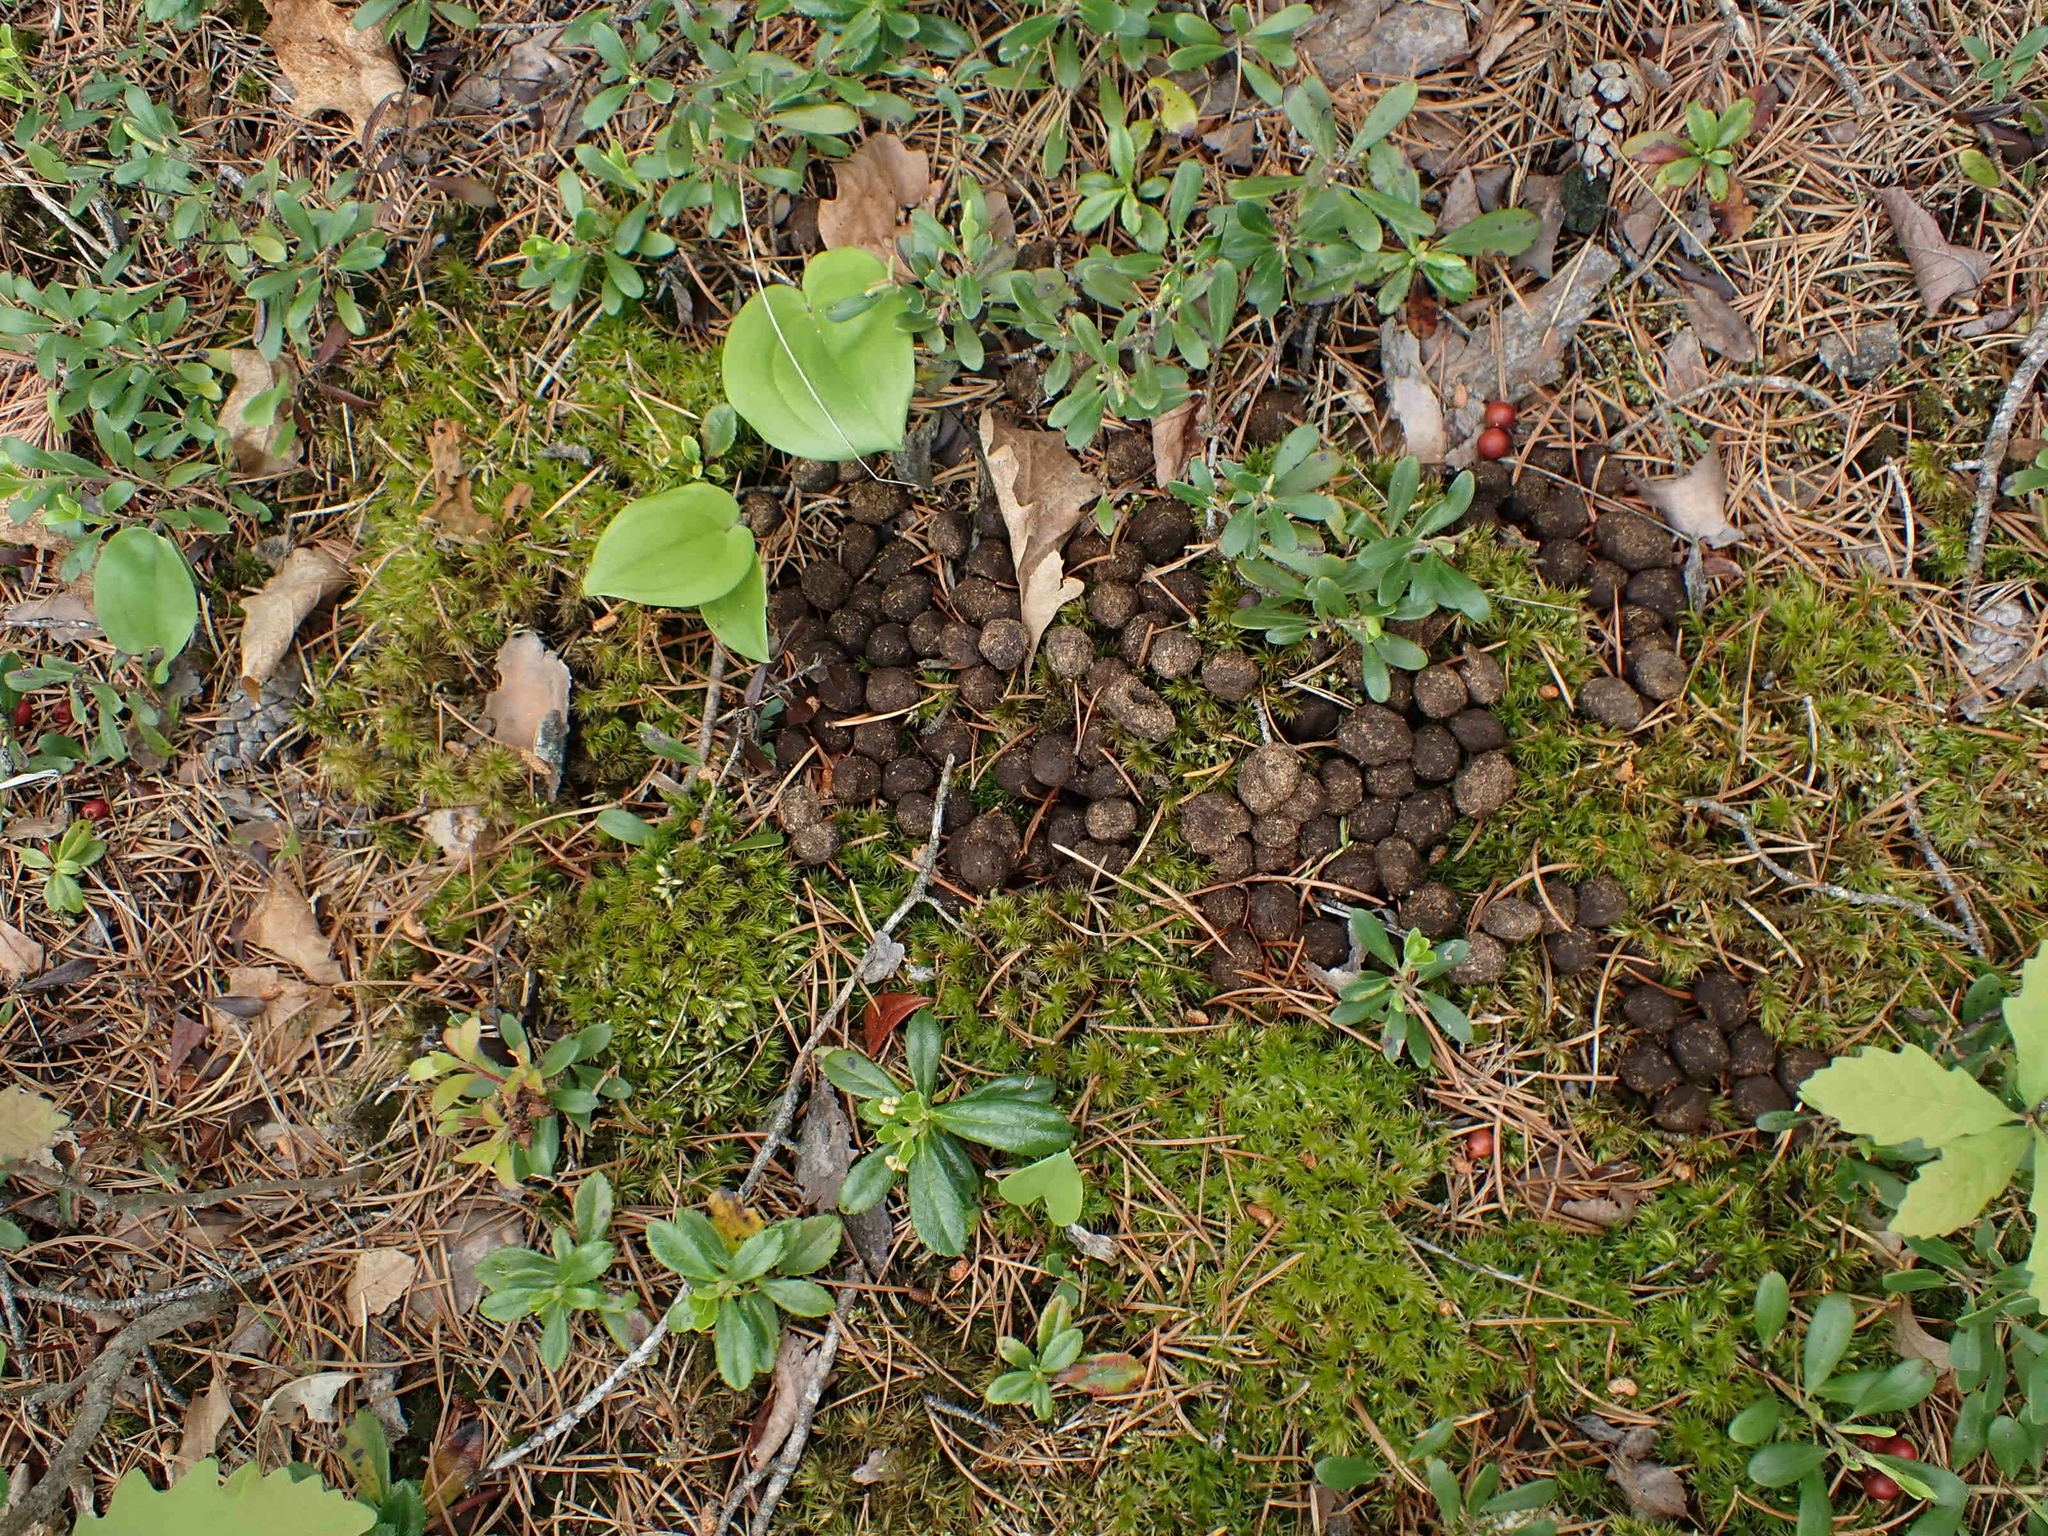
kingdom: Animalia
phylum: Chordata
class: Mammalia
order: Artiodactyla
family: Cervidae
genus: Odocoileus
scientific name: Odocoileus virginianus
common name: White-tailed deer
